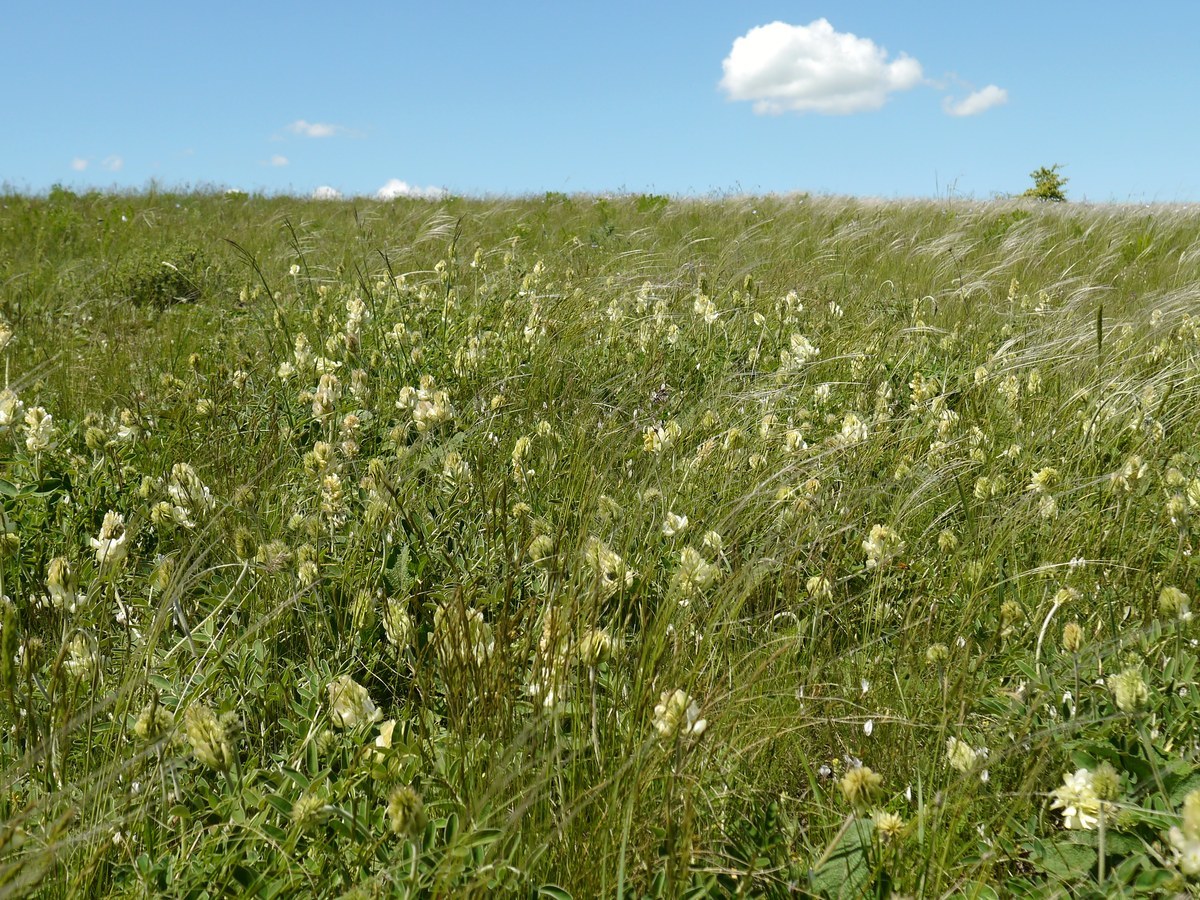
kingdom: Plantae
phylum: Tracheophyta
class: Magnoliopsida
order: Fabales
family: Fabaceae
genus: Hedysarum
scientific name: Hedysarum grandiflorum
